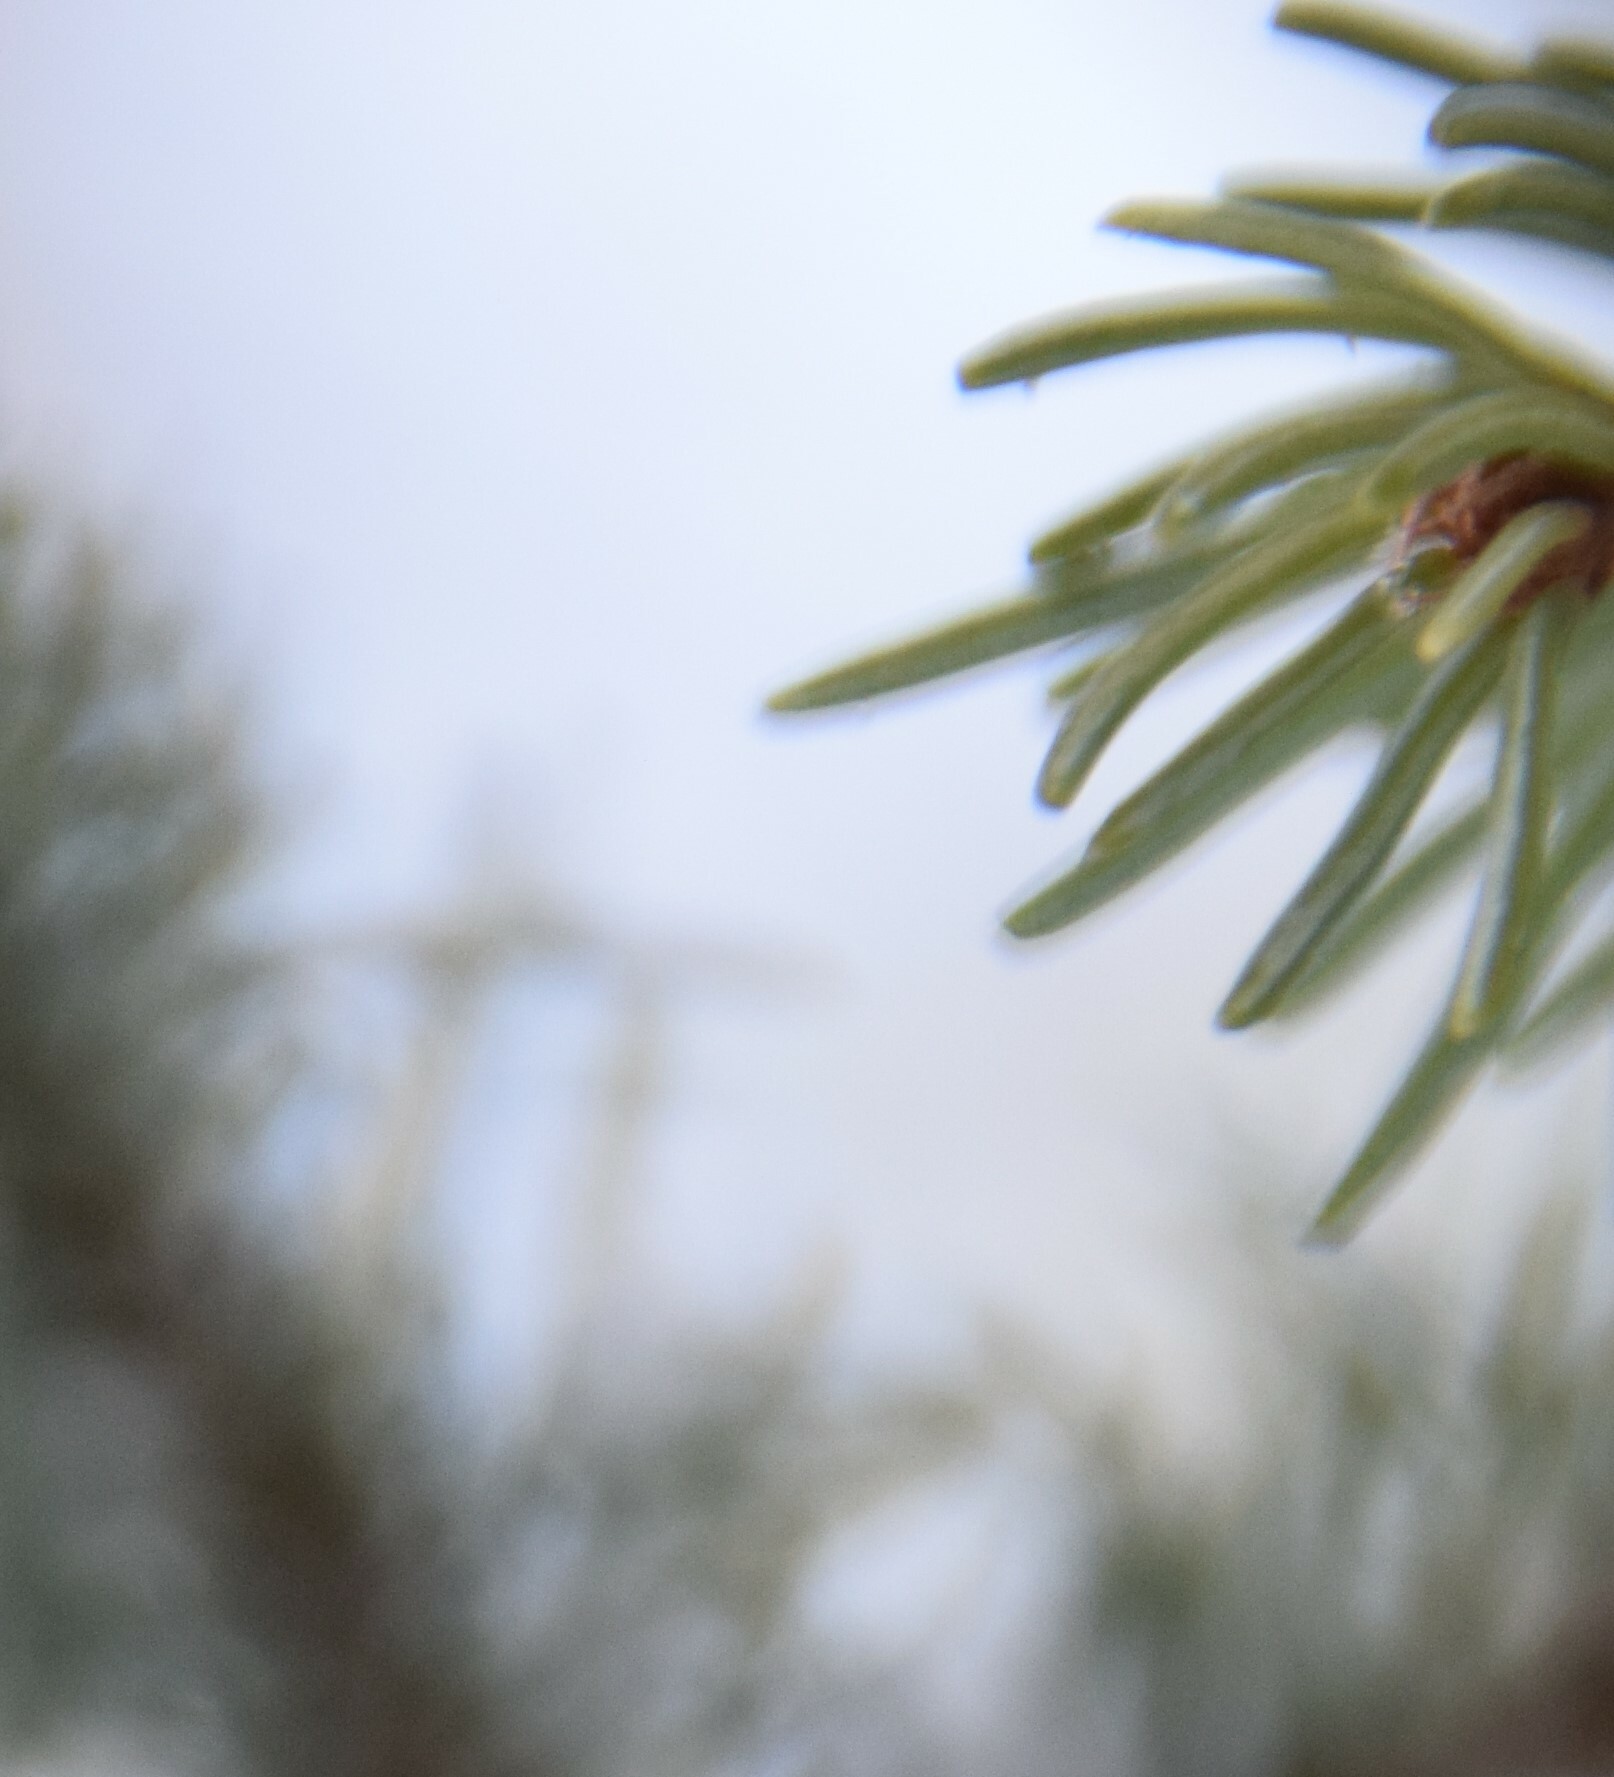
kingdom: Plantae
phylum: Tracheophyta
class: Pinopsida
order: Pinales
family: Pinaceae
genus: Picea
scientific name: Picea mariana
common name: Black spruce
